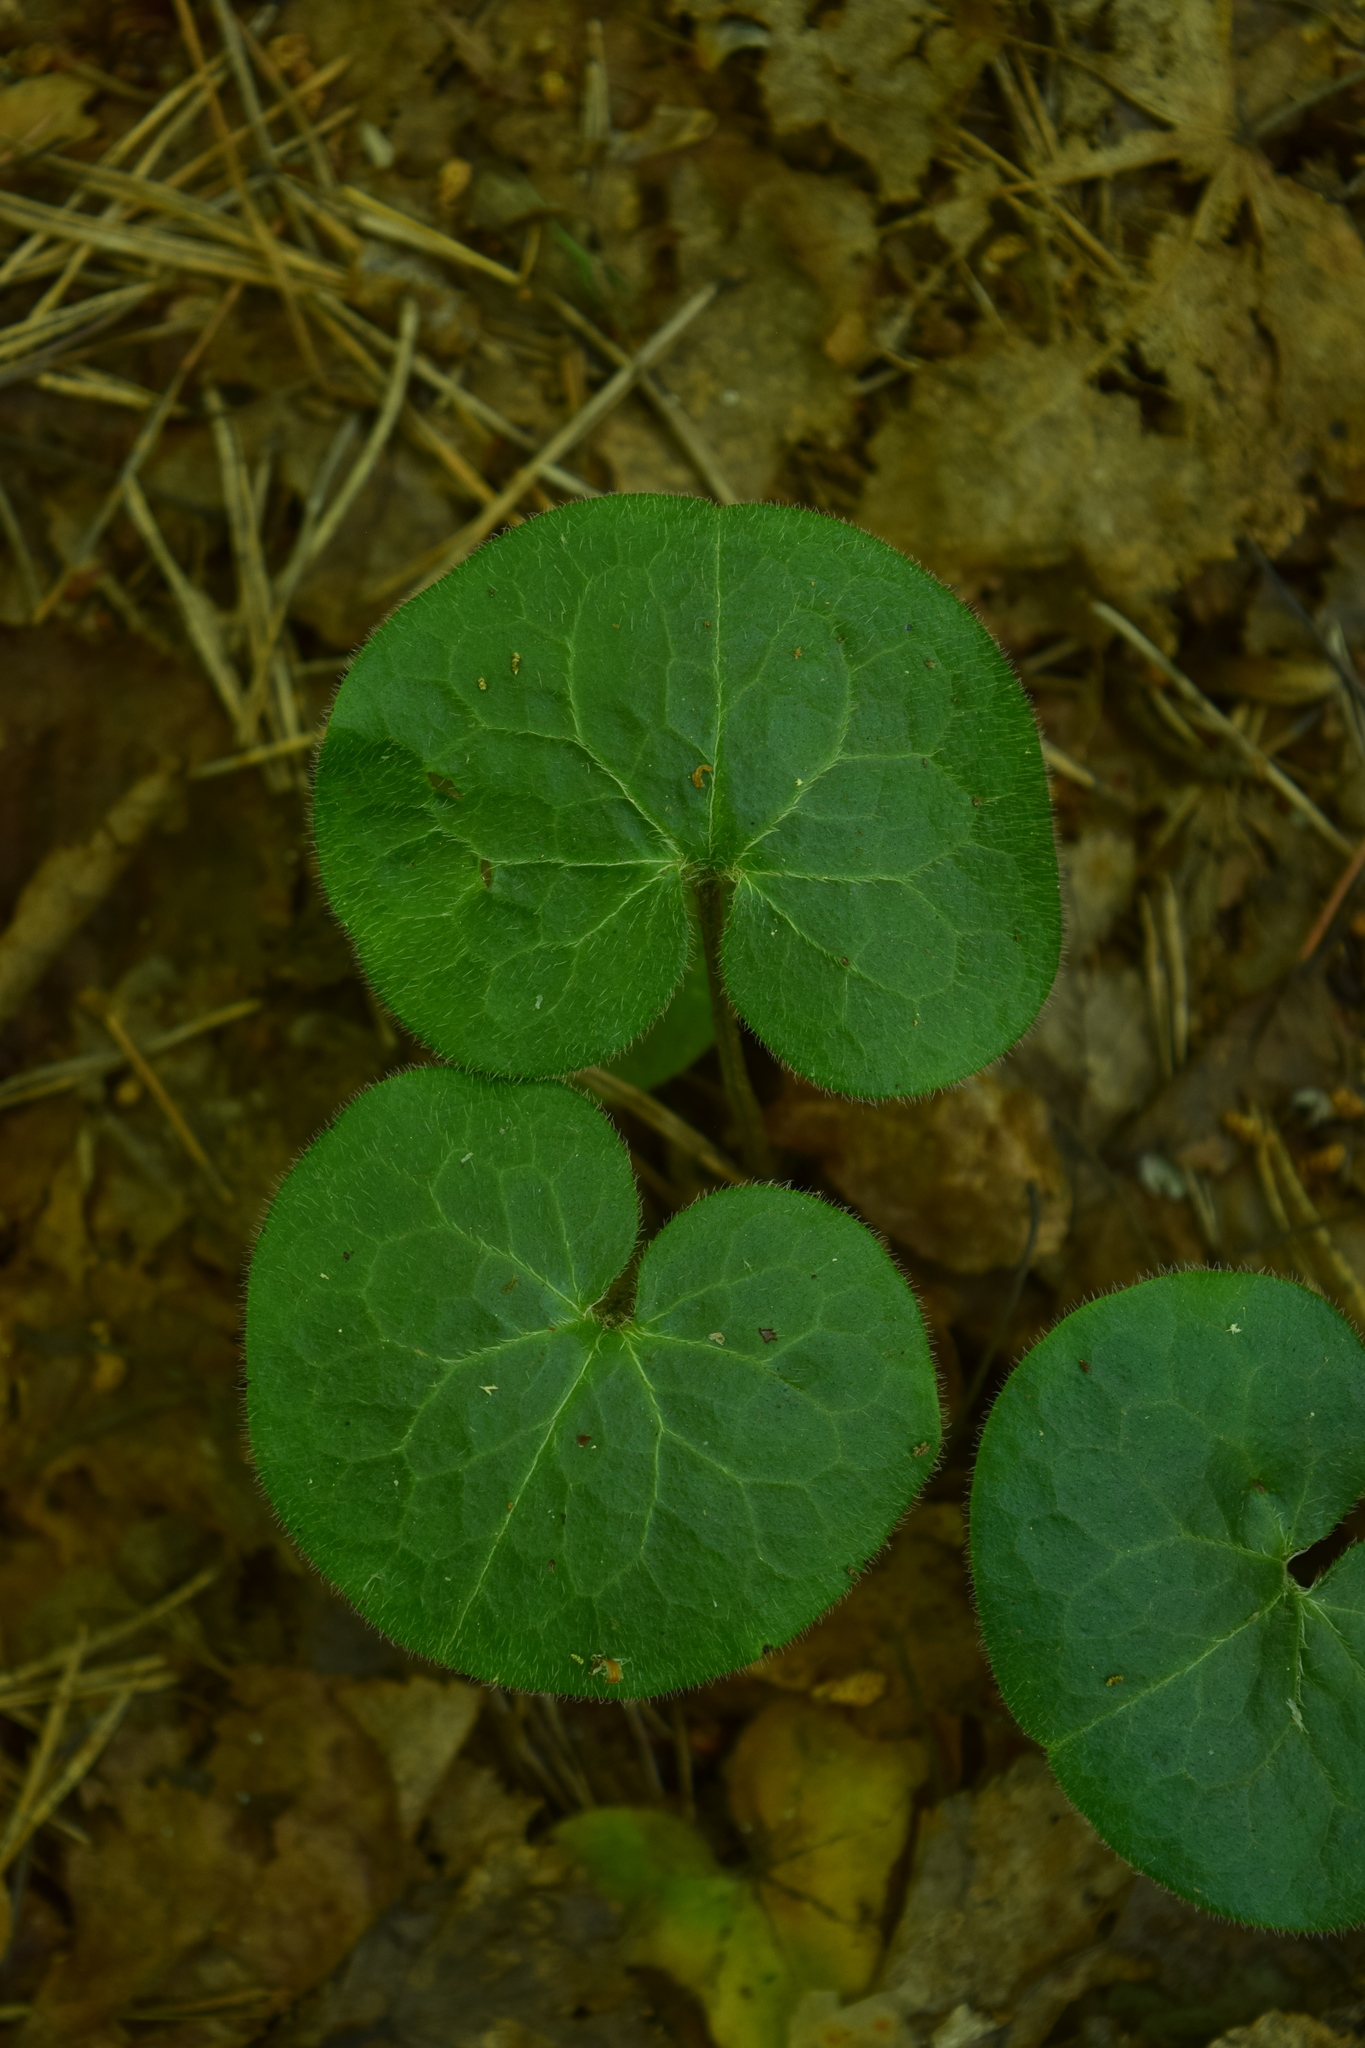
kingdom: Plantae
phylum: Tracheophyta
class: Magnoliopsida
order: Piperales
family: Aristolochiaceae
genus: Asarum
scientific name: Asarum europaeum
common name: Asarabacca
